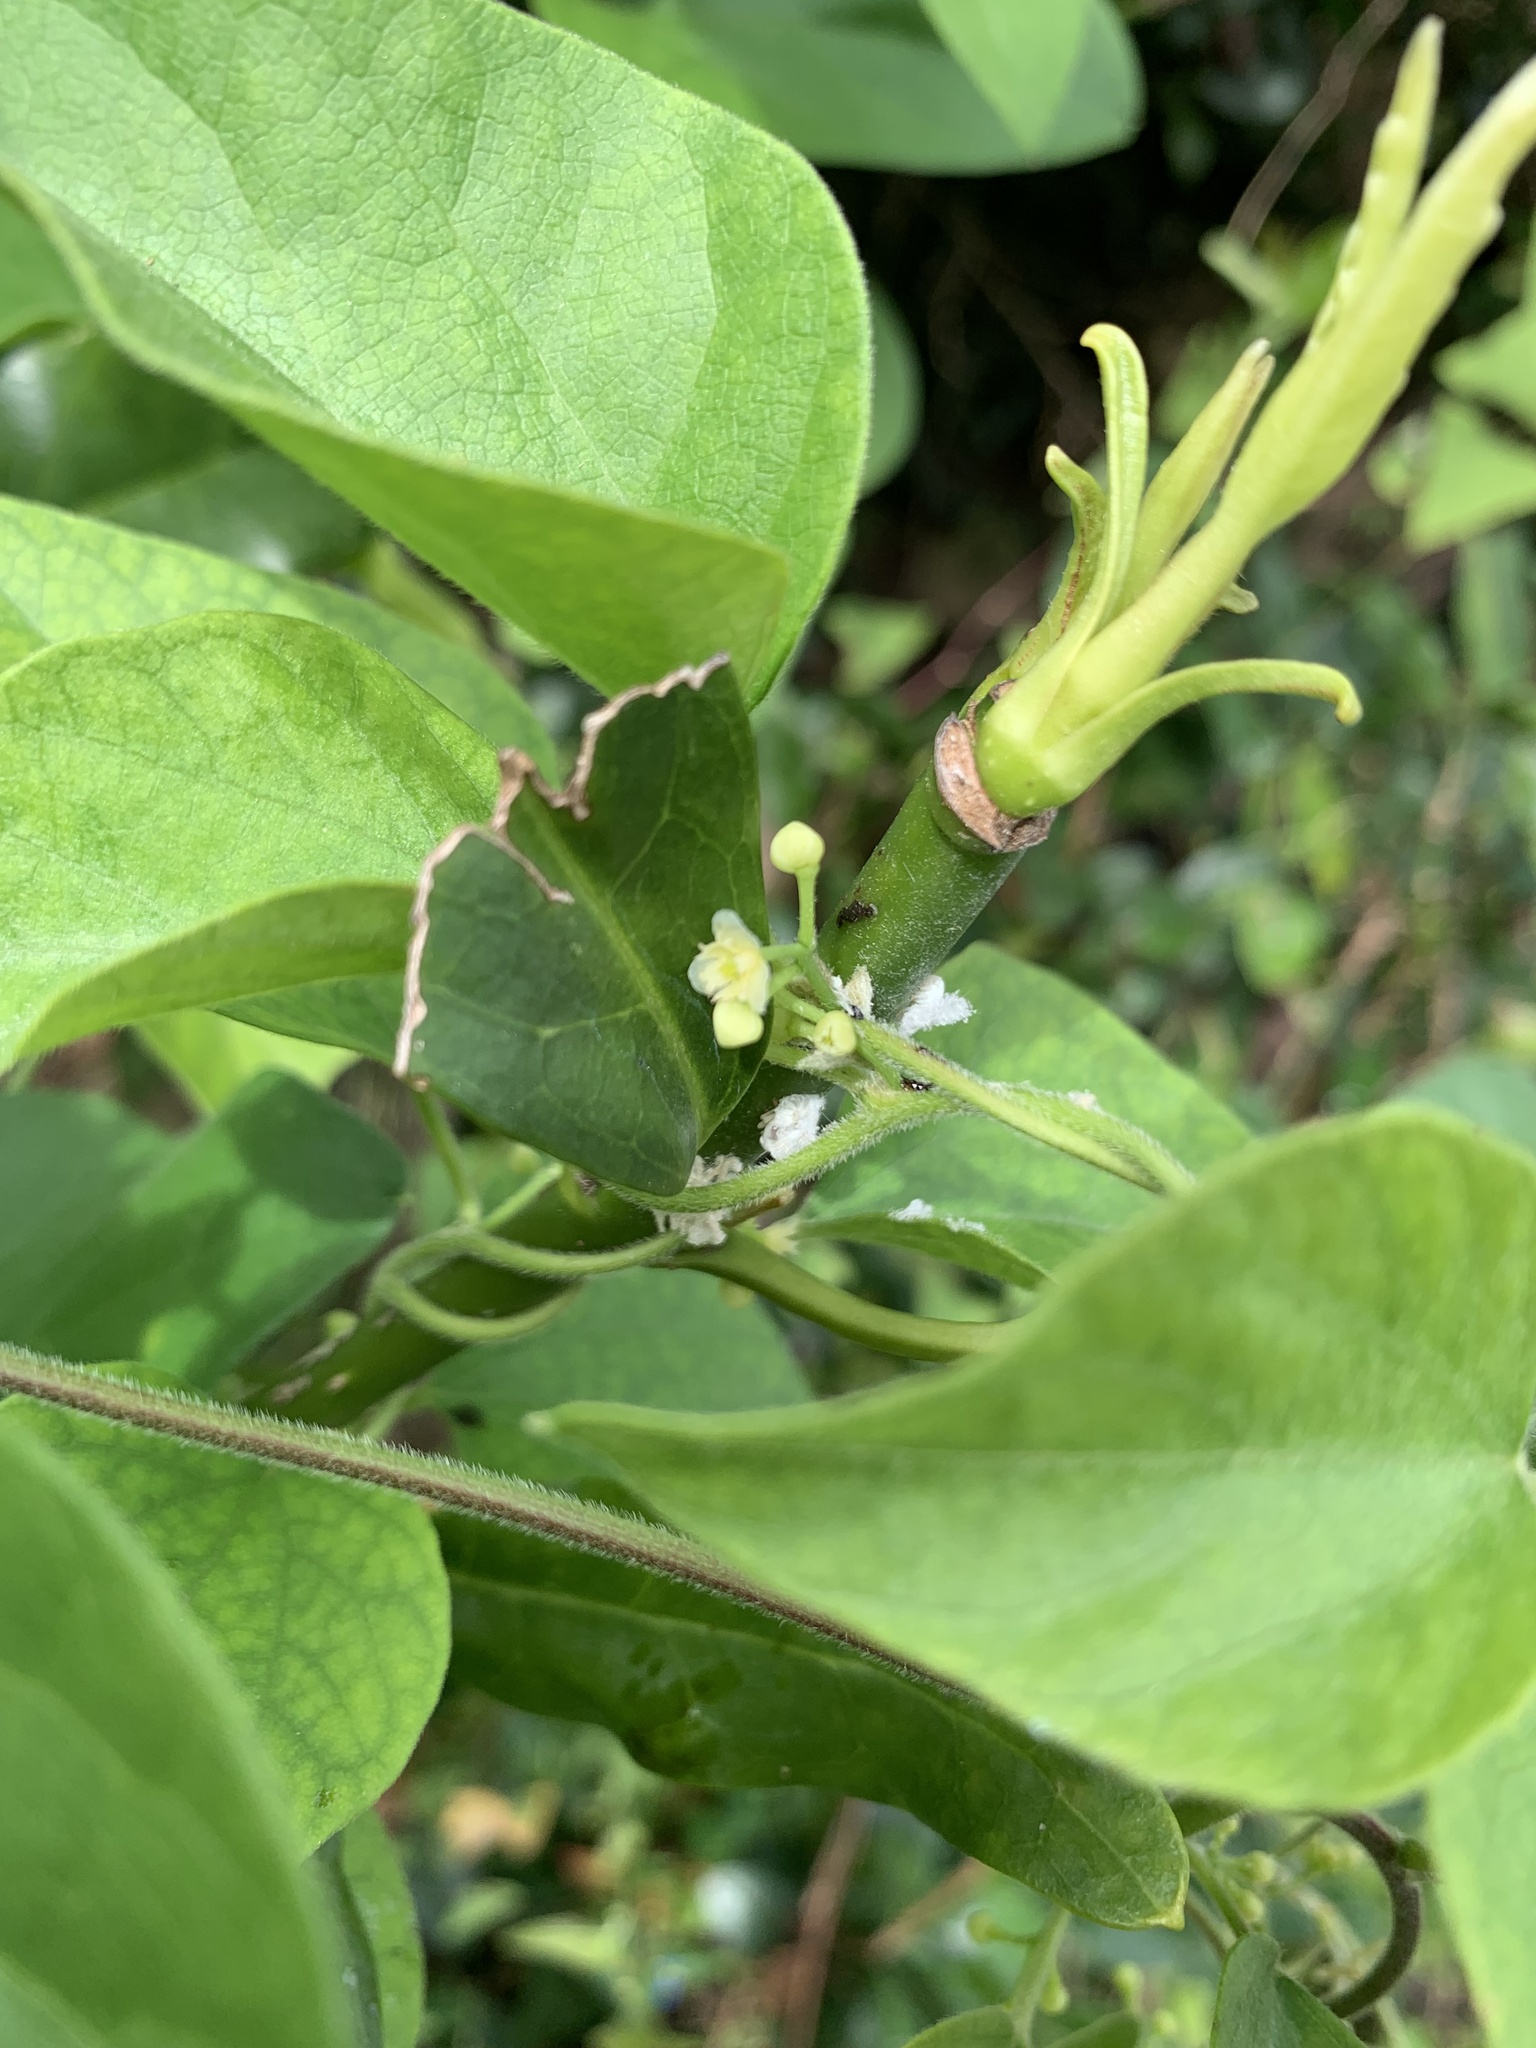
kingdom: Plantae
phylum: Tracheophyta
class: Magnoliopsida
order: Ranunculales
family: Menispermaceae
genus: Cocculus
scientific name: Cocculus orbiculatus
